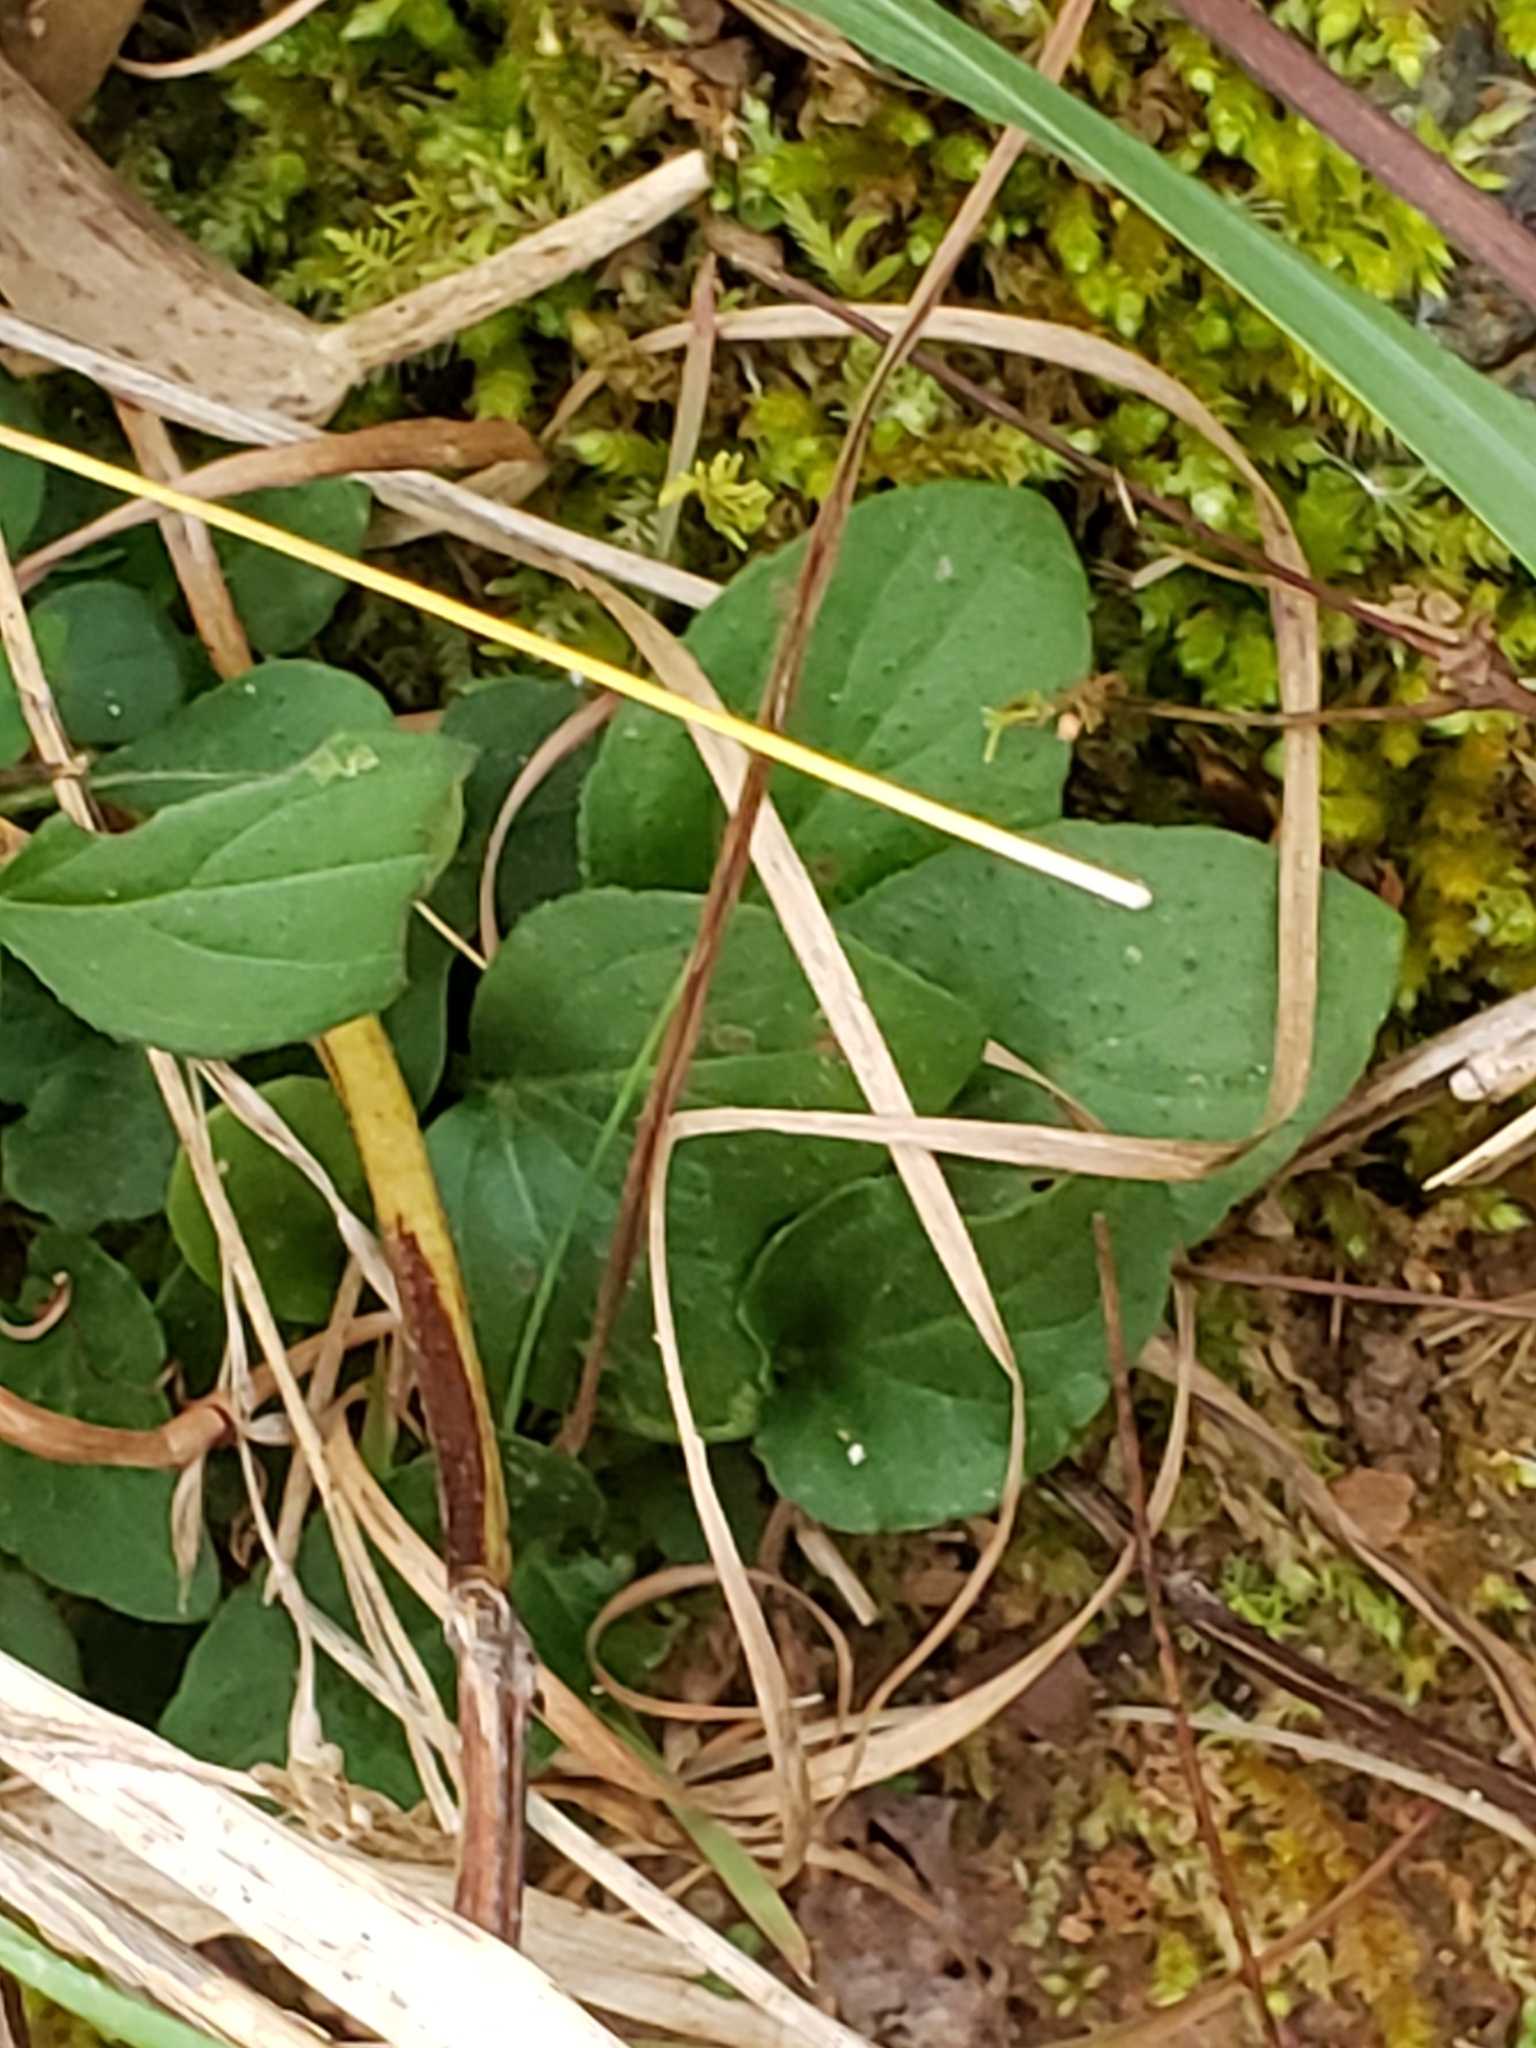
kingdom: Plantae
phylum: Tracheophyta
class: Magnoliopsida
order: Lamiales
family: Lamiaceae
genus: Prunella
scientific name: Prunella vulgaris
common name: Heal-all
